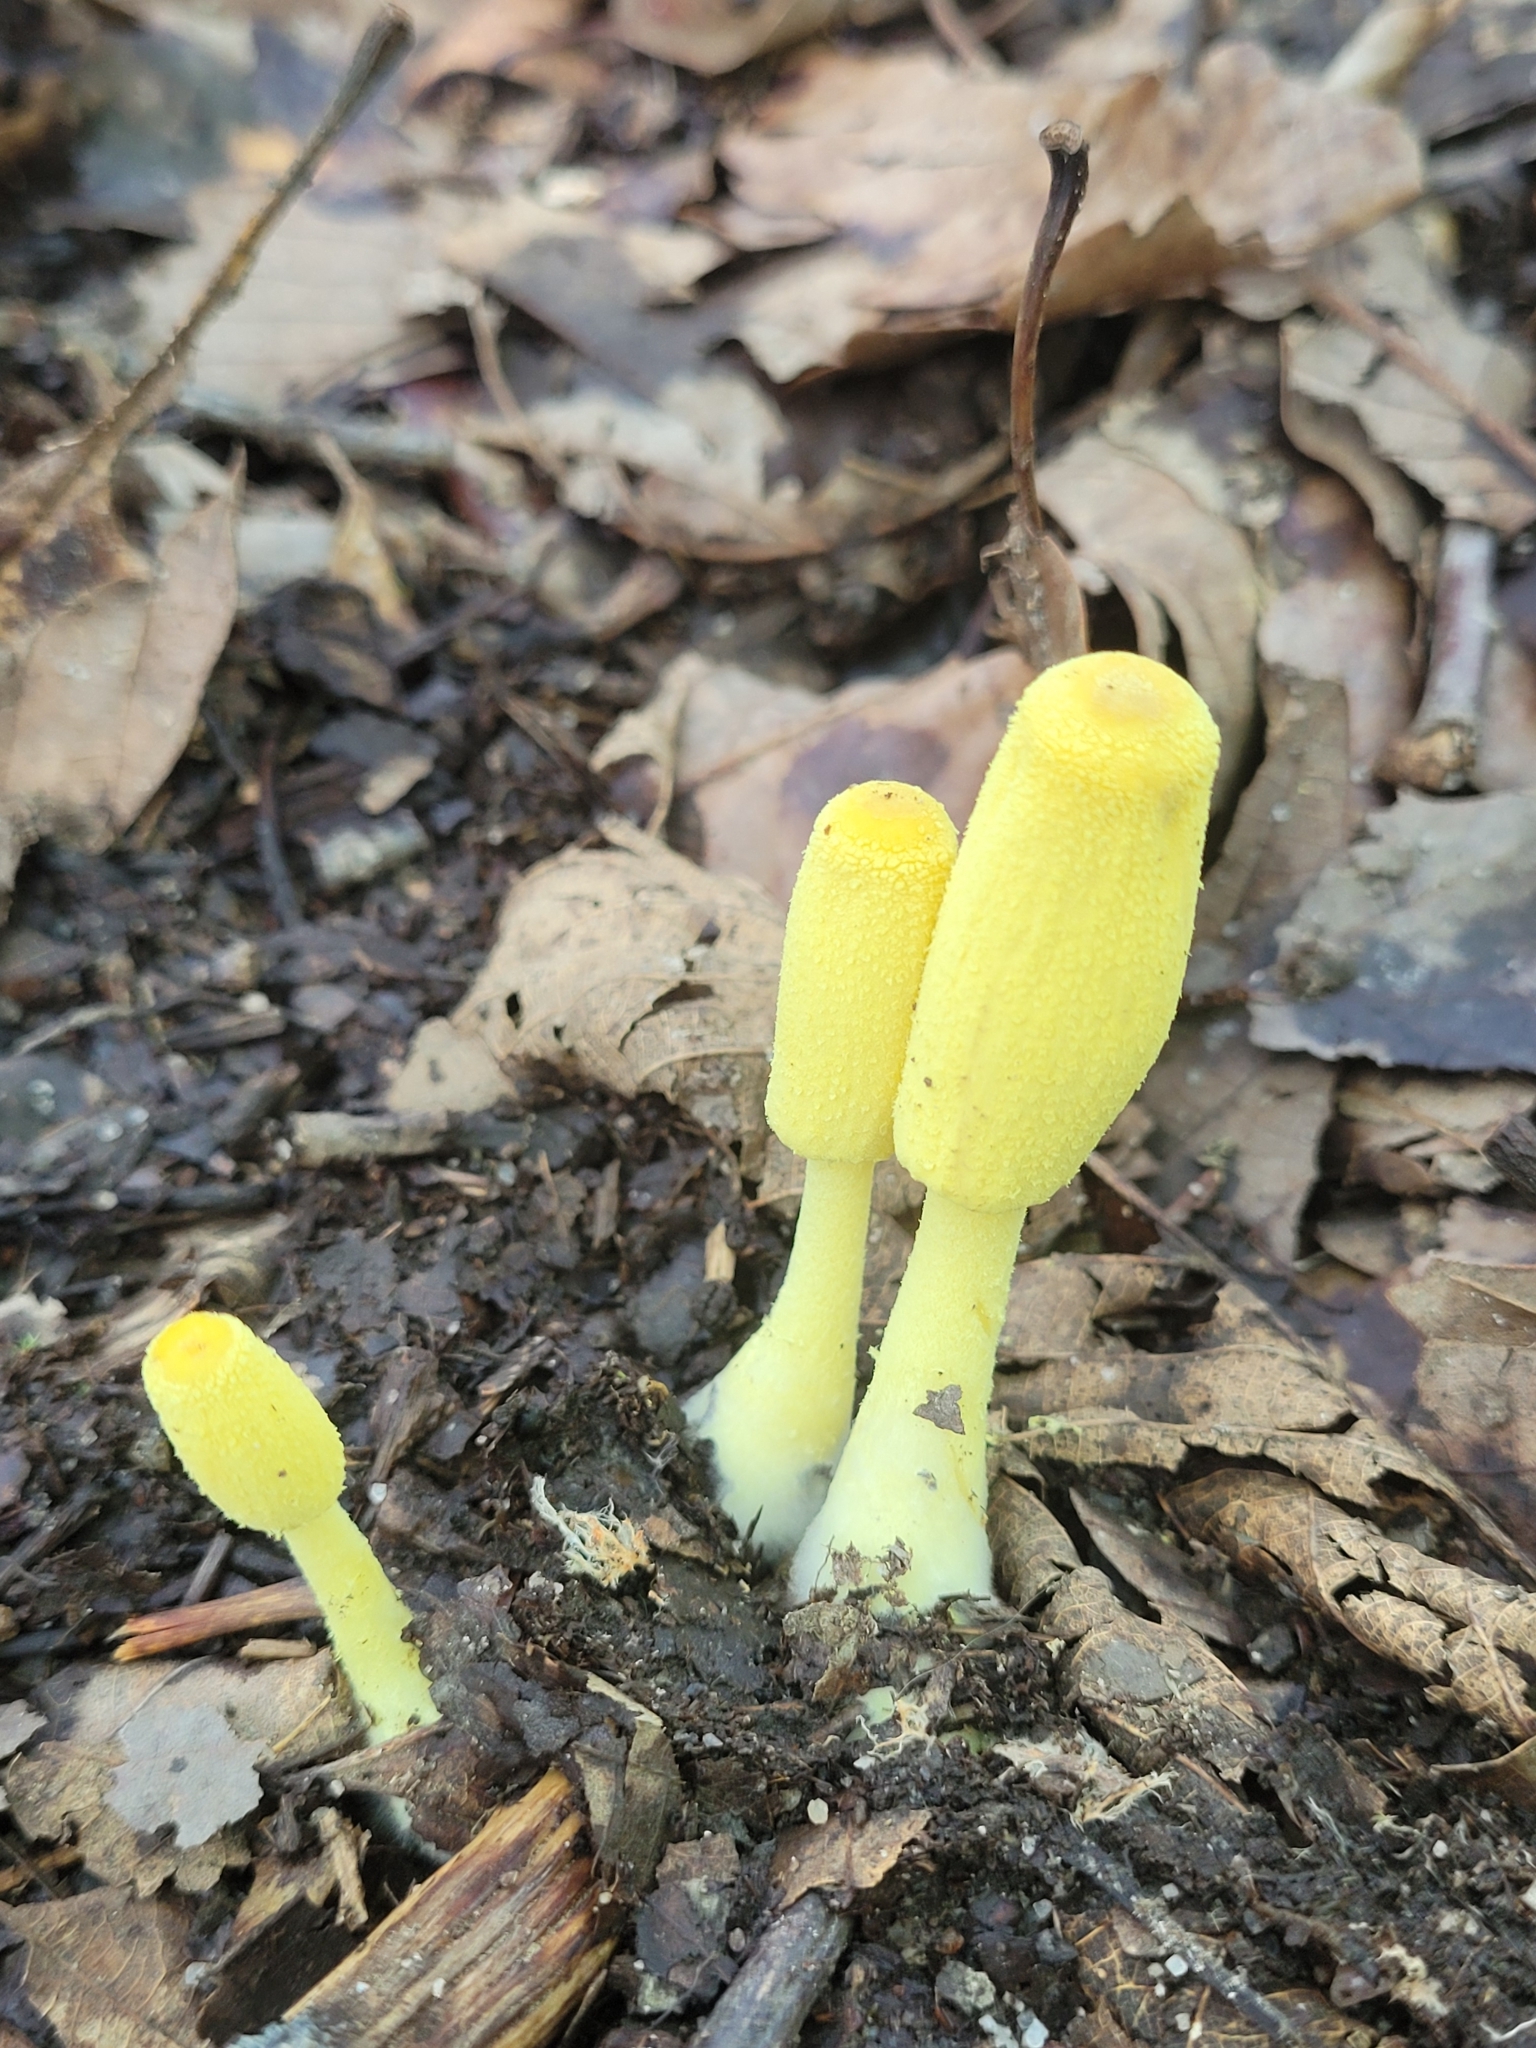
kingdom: Fungi
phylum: Basidiomycota
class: Agaricomycetes
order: Agaricales
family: Agaricaceae
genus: Leucocoprinus
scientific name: Leucocoprinus birnbaumii
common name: Plantpot dapperling
